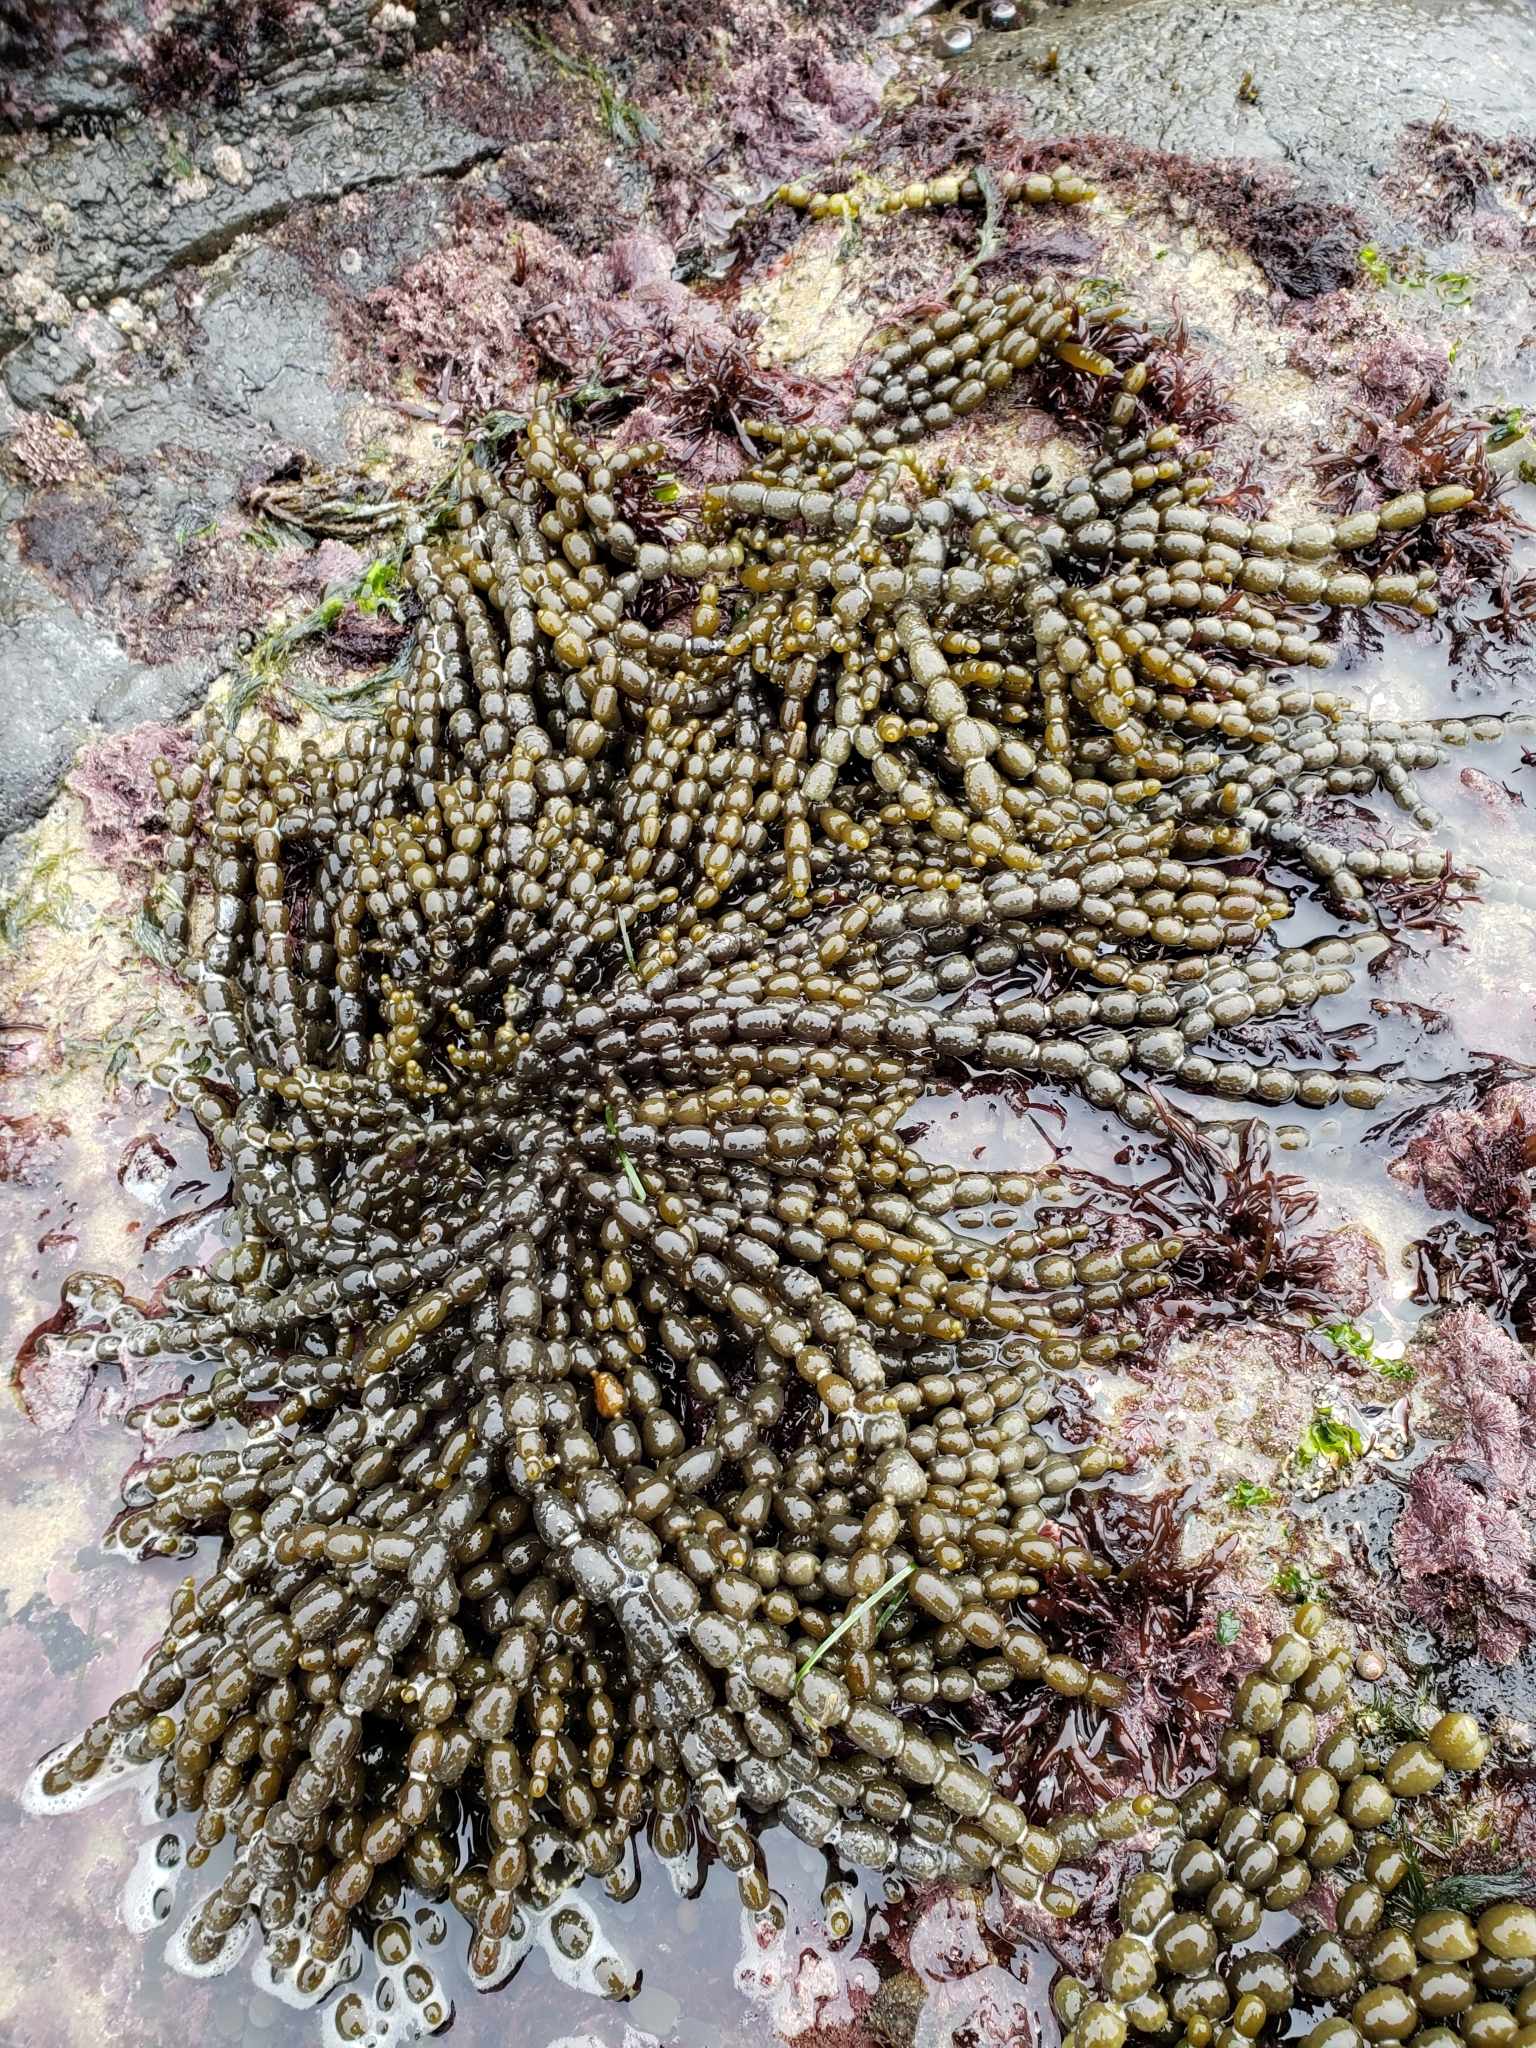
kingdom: Chromista
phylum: Ochrophyta
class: Phaeophyceae
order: Fucales
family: Hormosiraceae
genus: Hormosira
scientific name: Hormosira banksii
